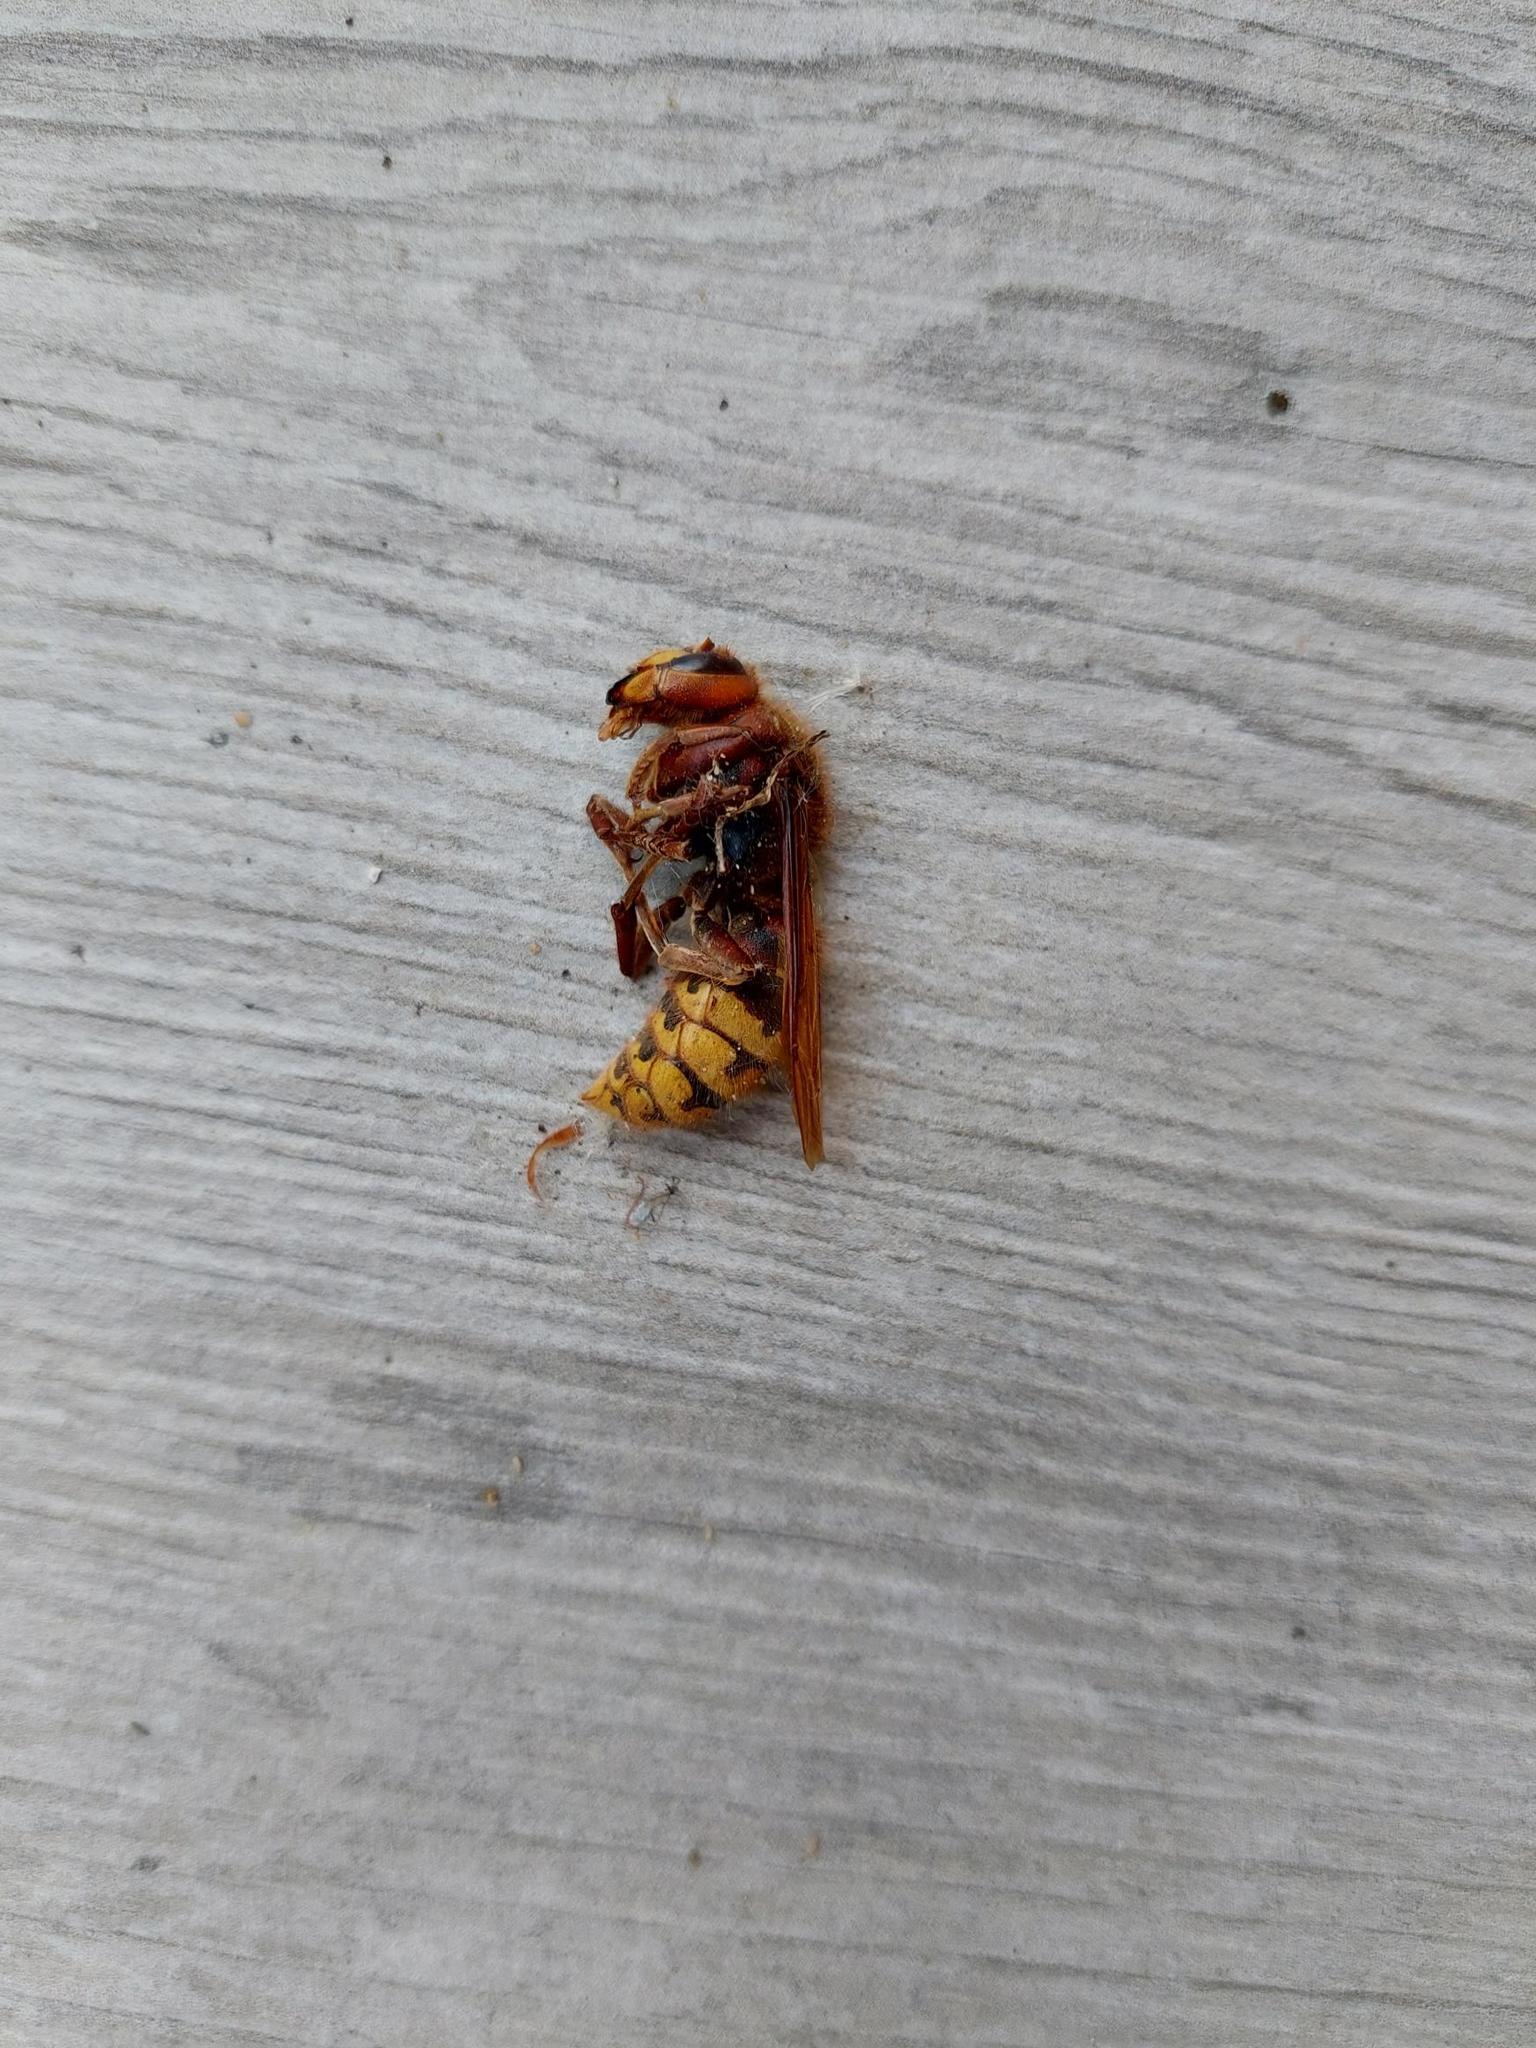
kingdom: Animalia
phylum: Arthropoda
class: Insecta
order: Hymenoptera
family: Vespidae
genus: Vespa
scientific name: Vespa crabro
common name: Hornet
